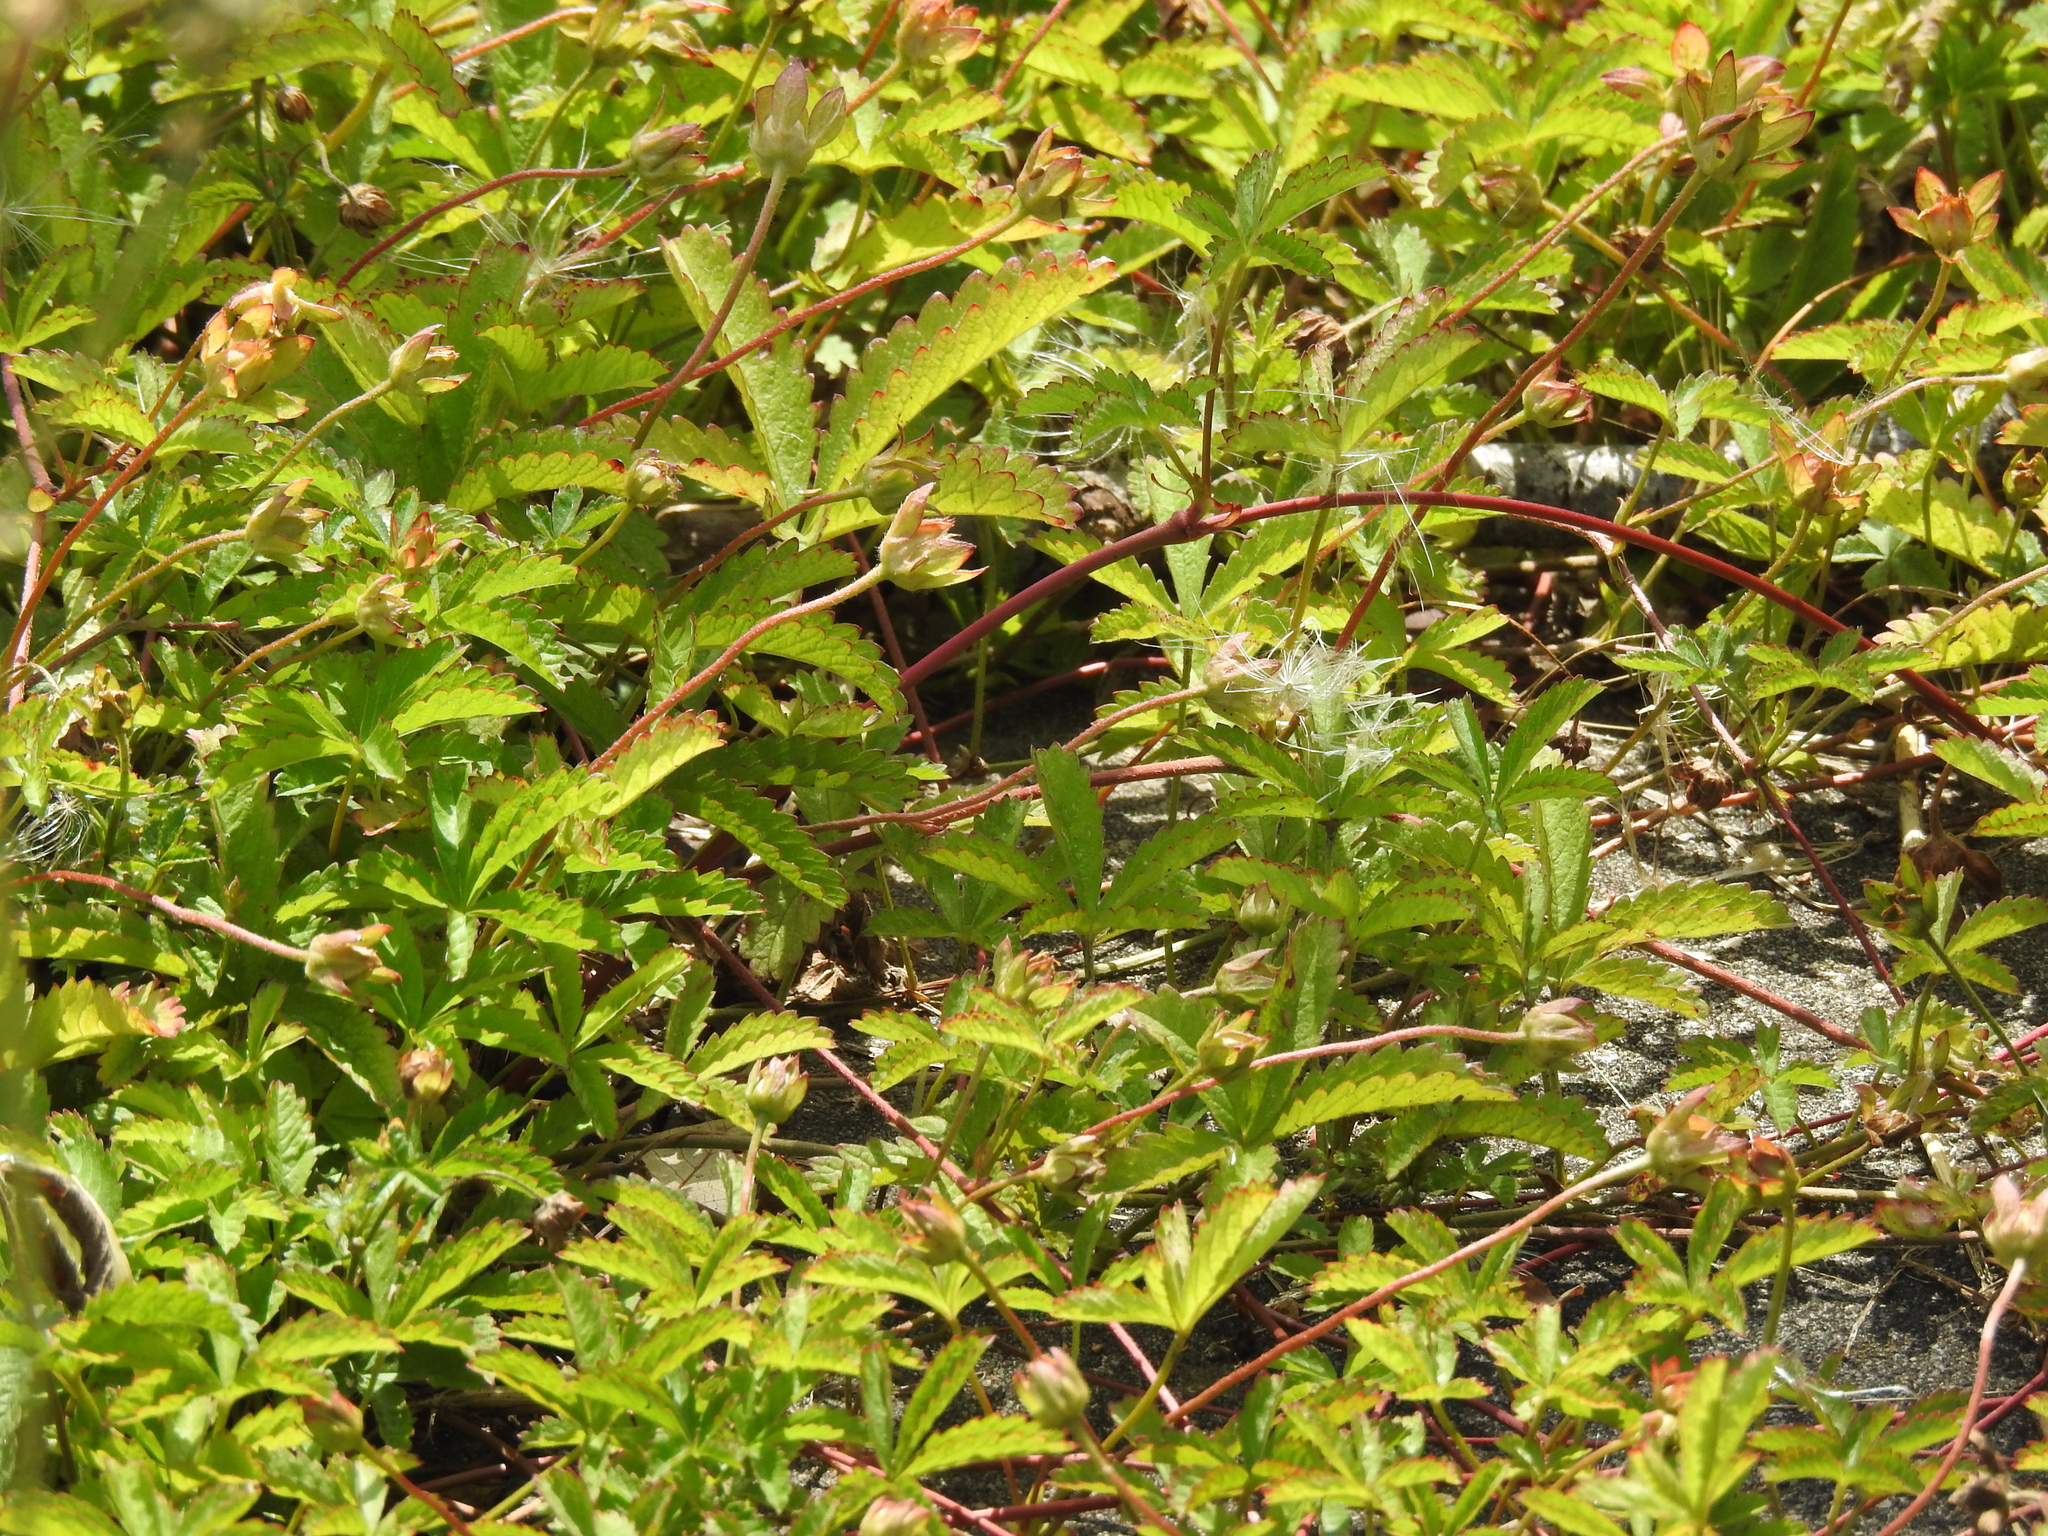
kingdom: Plantae
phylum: Tracheophyta
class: Magnoliopsida
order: Rosales
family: Rosaceae
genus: Potentilla
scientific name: Potentilla reptans
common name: Creeping cinquefoil
